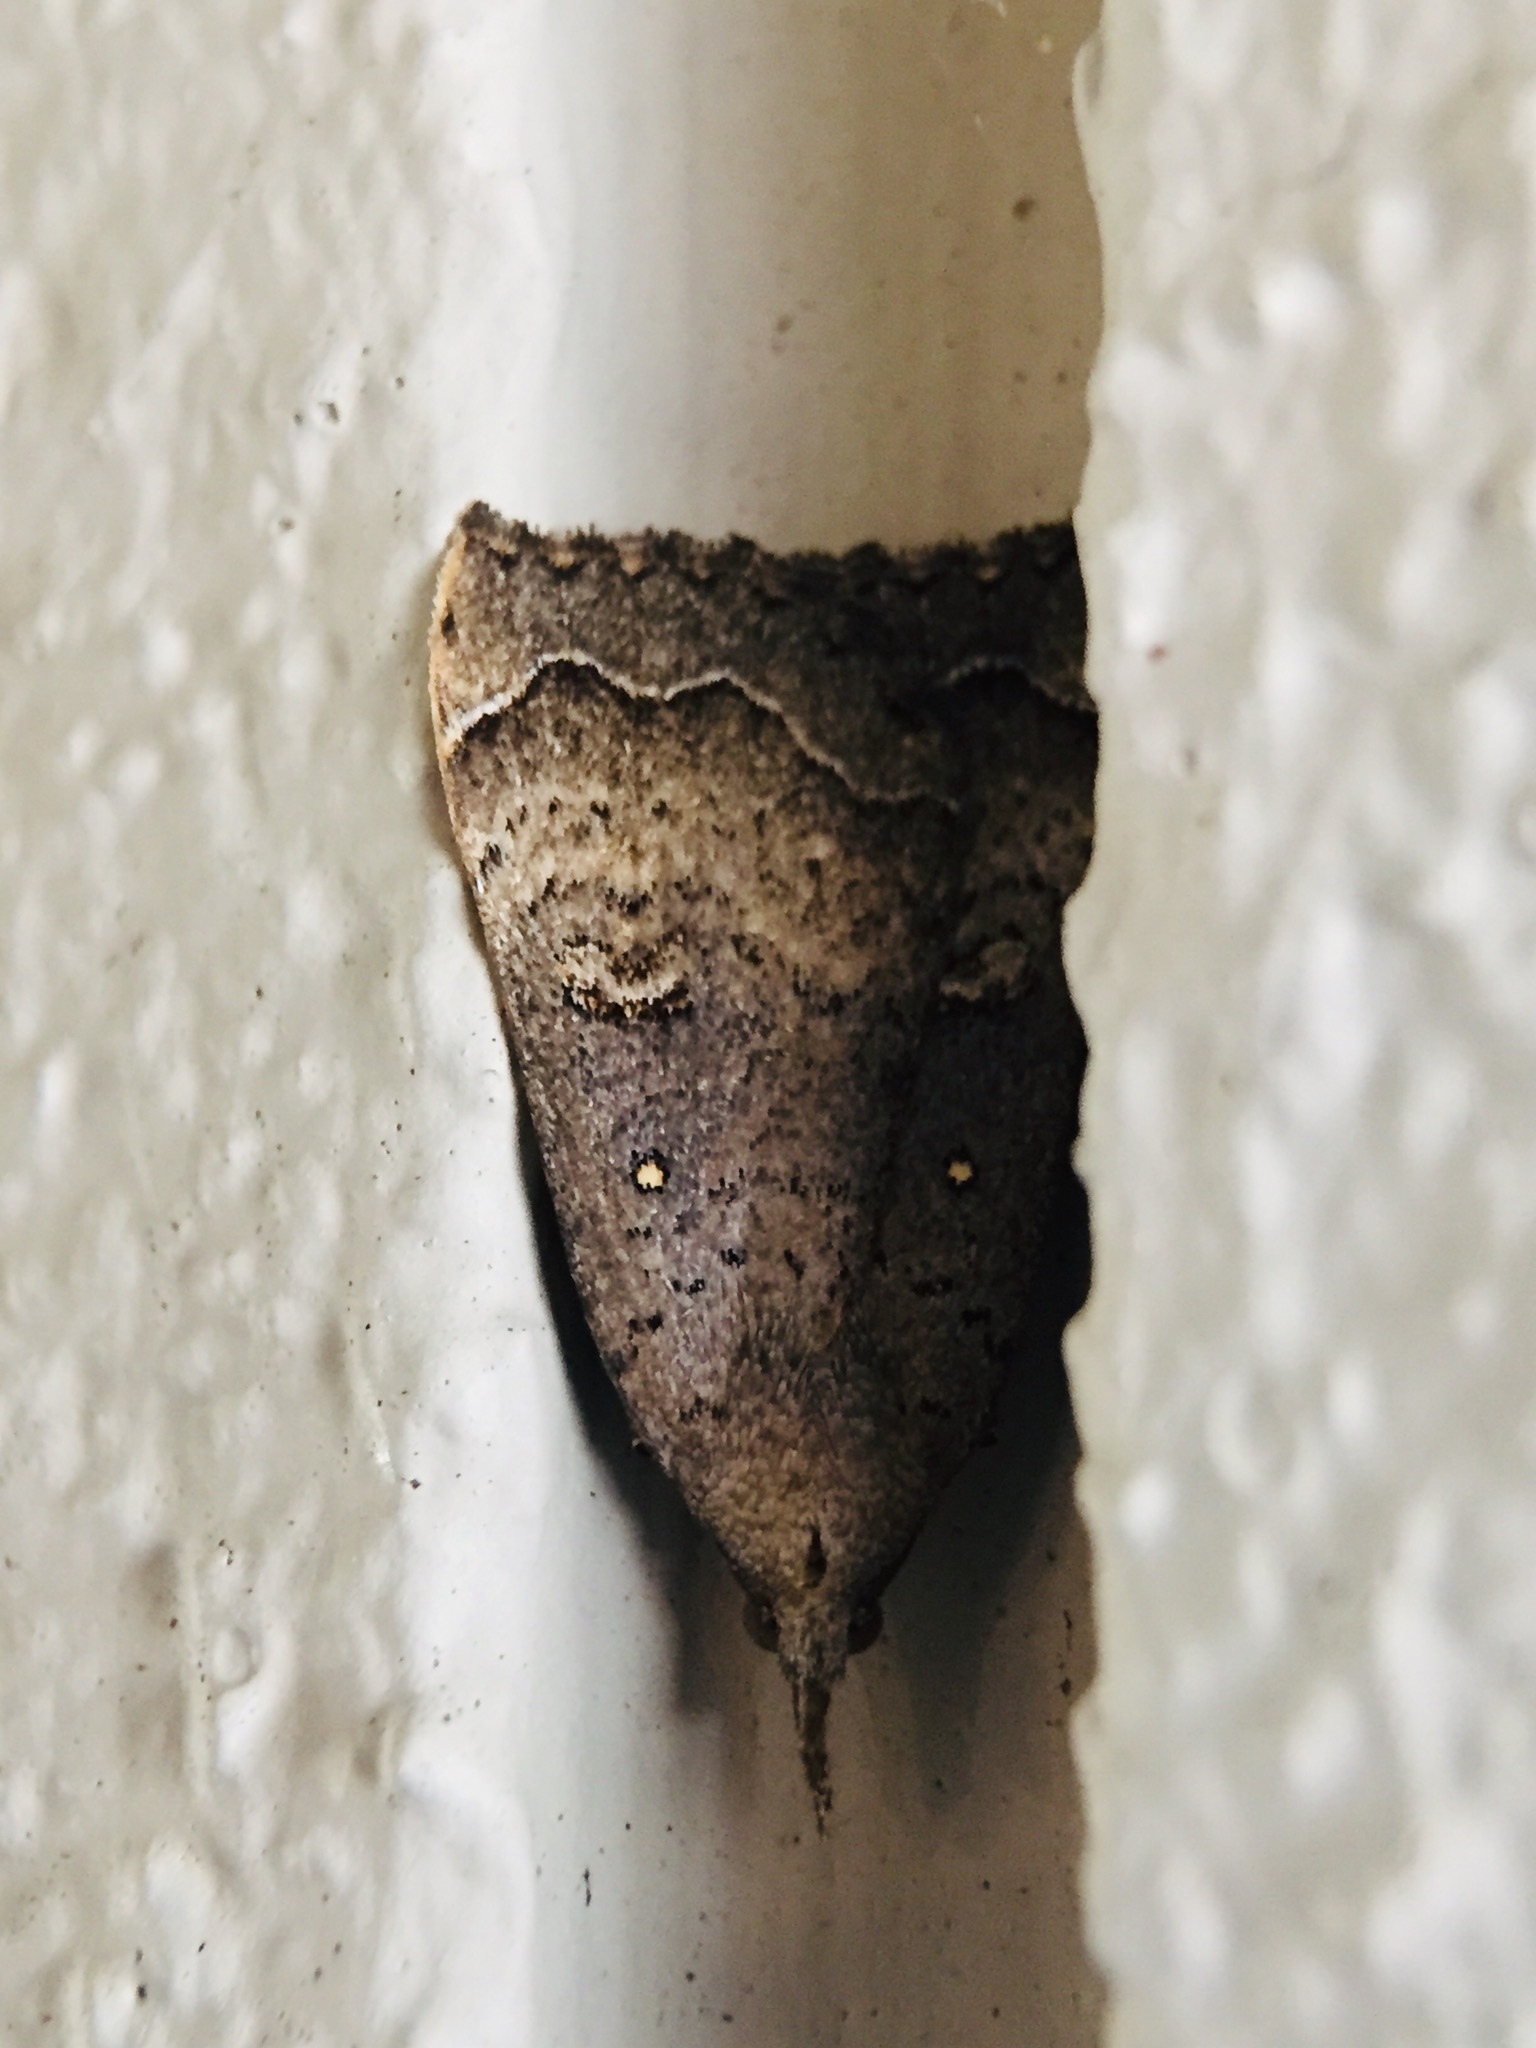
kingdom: Animalia
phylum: Arthropoda
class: Insecta
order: Lepidoptera
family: Erebidae
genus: Rhapsa
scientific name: Rhapsa scotosialis
